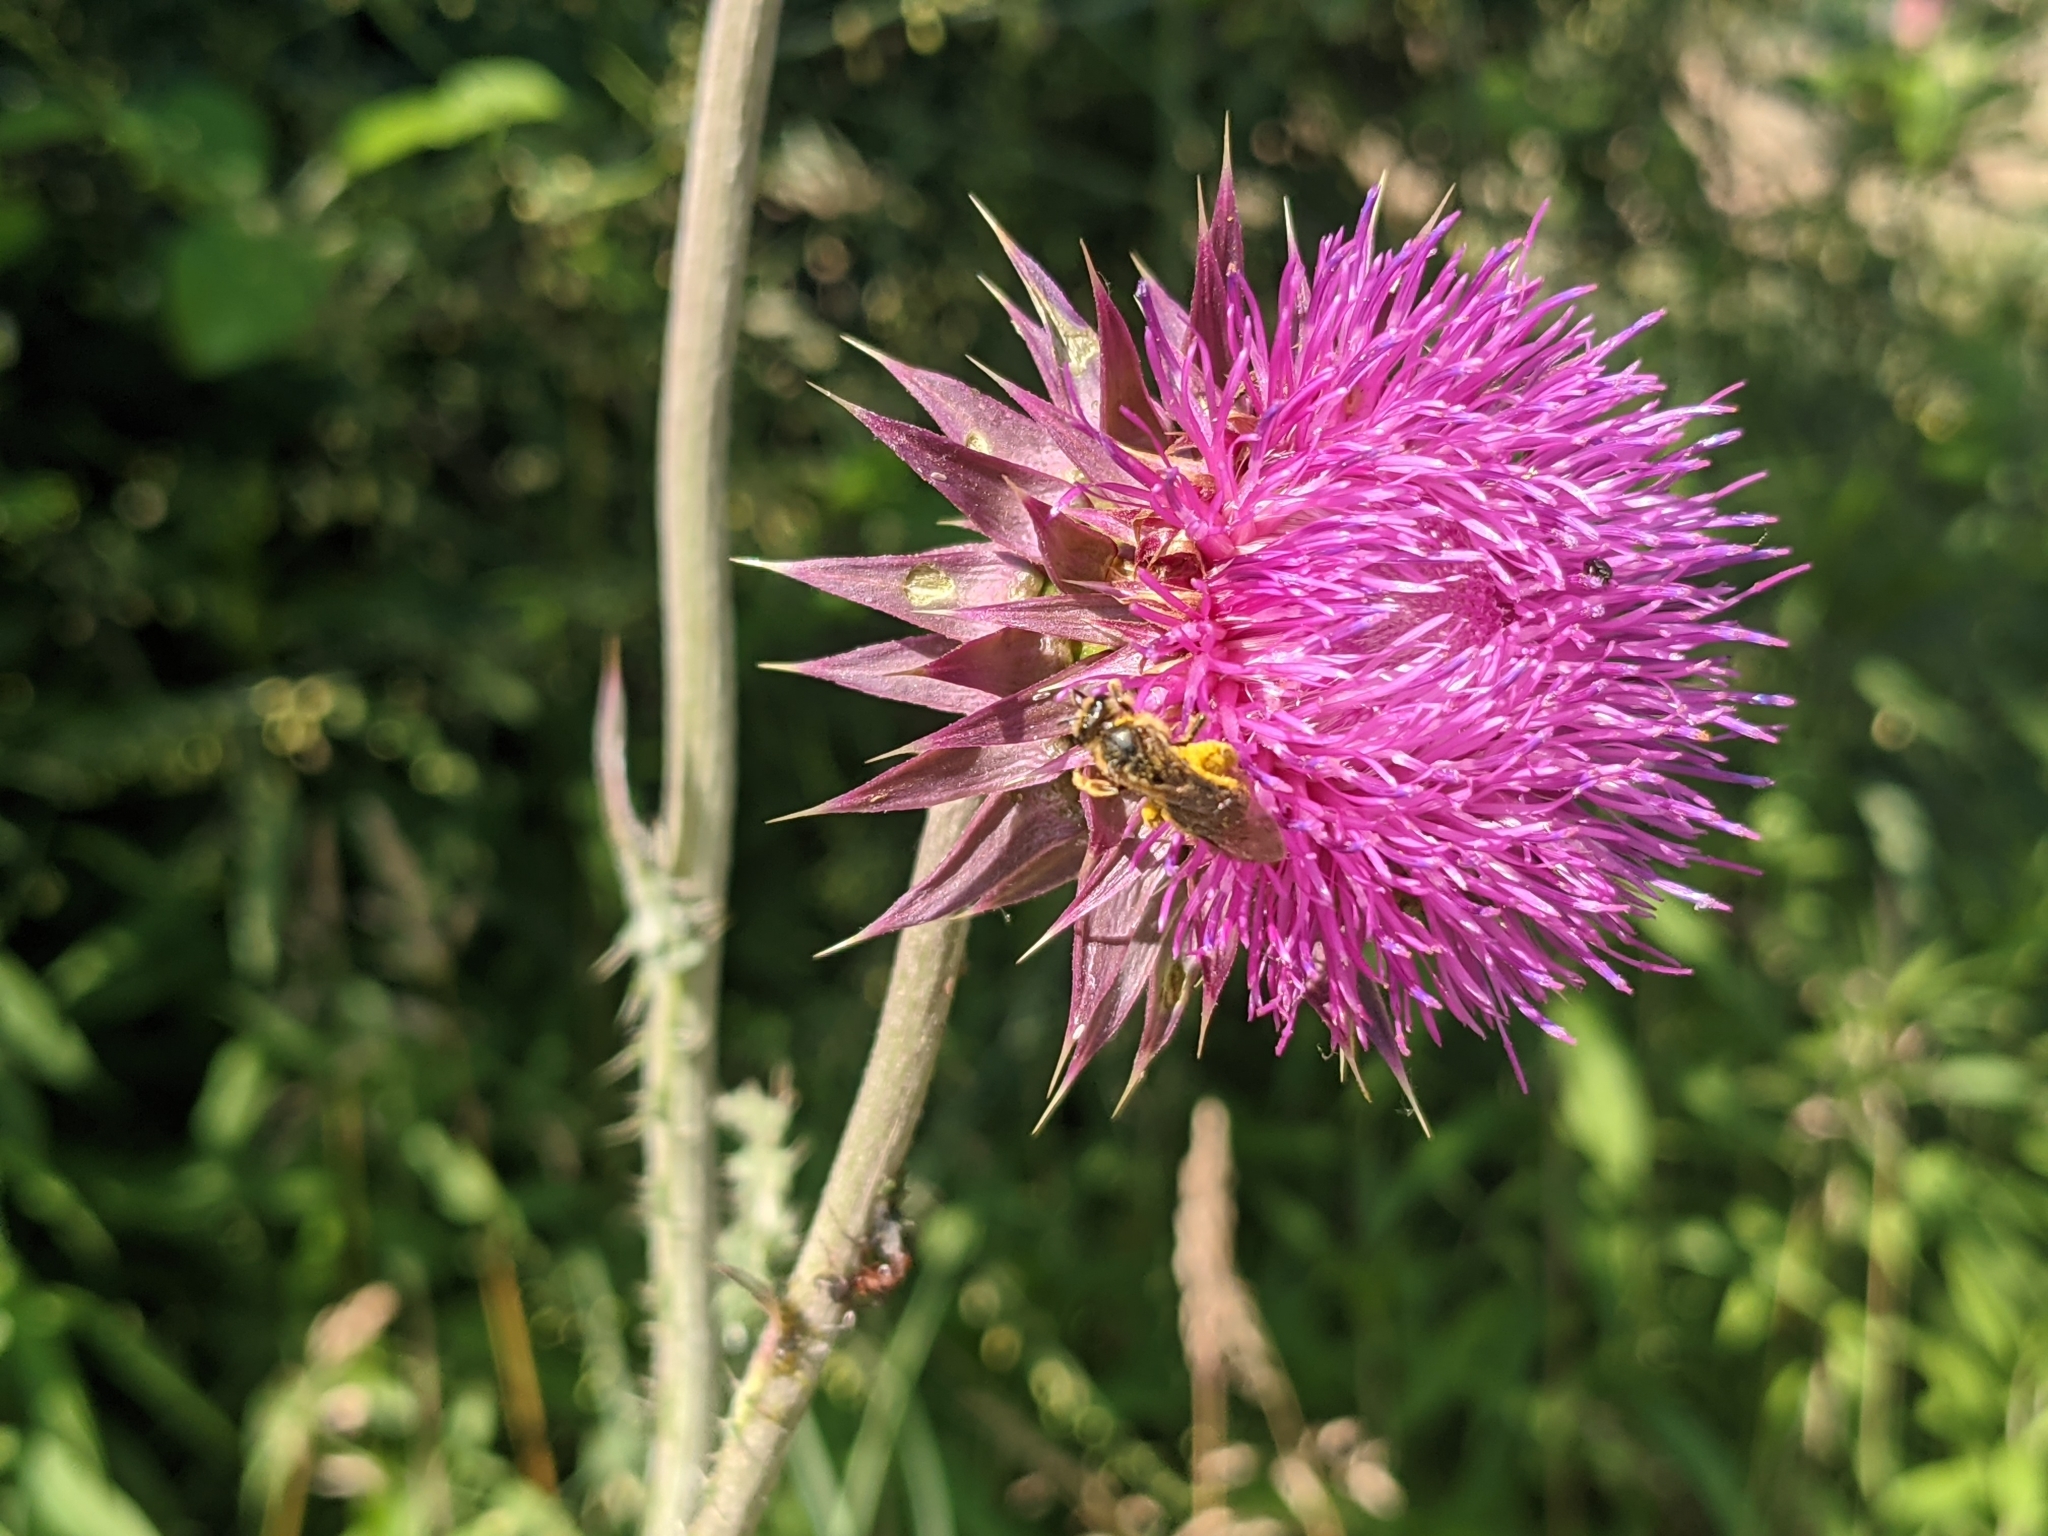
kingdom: Plantae
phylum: Tracheophyta
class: Magnoliopsida
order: Asterales
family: Asteraceae
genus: Carduus
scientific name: Carduus nutans
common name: Musk thistle
